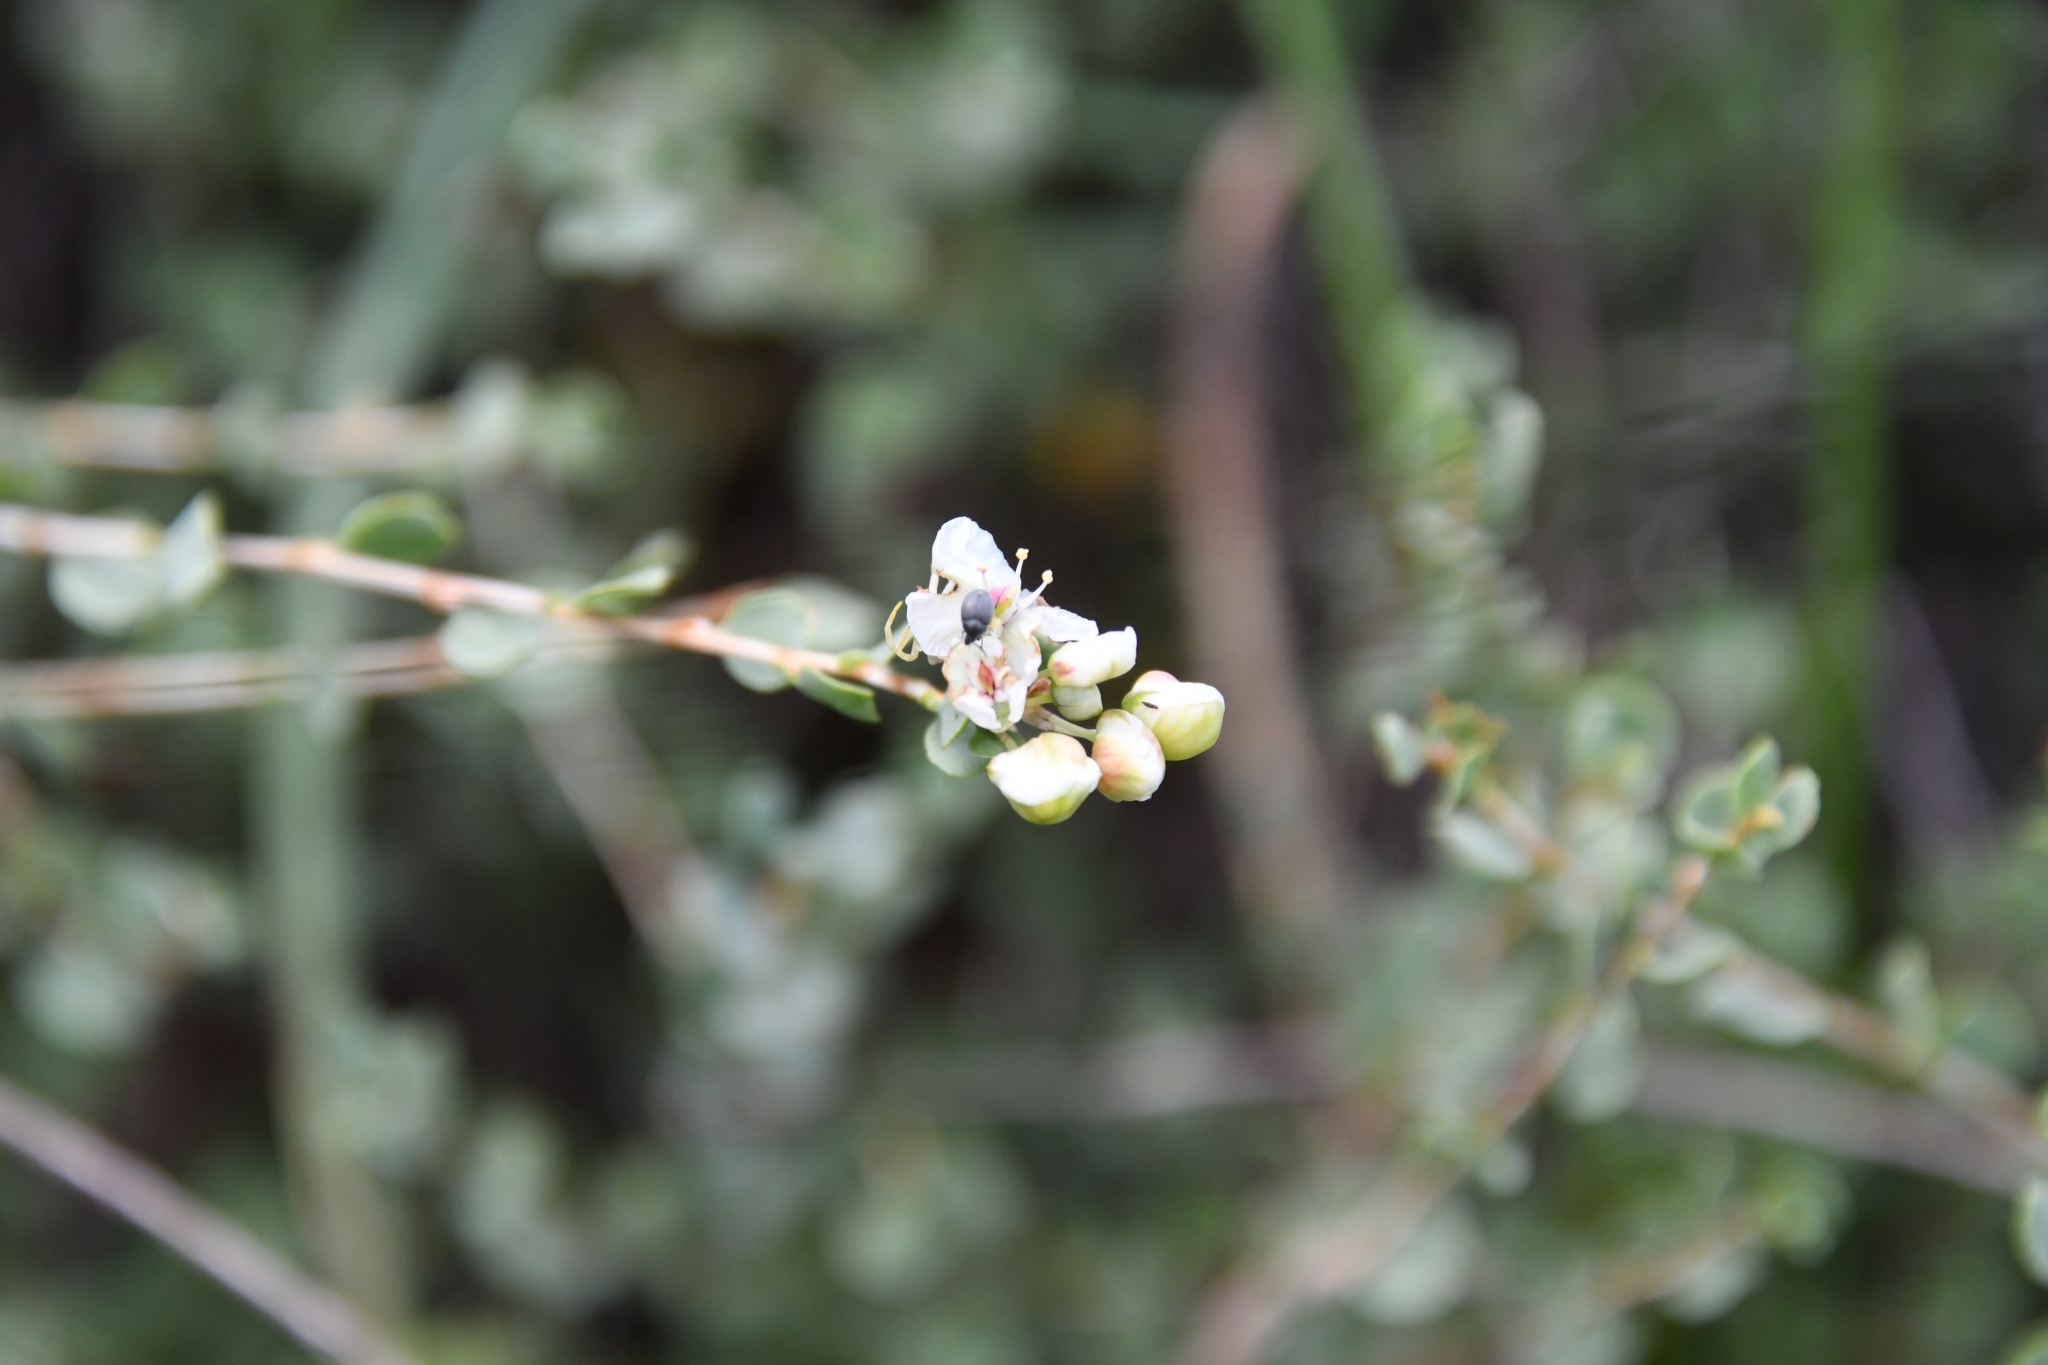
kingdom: Plantae
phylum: Tracheophyta
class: Magnoliopsida
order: Caryophyllales
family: Polygonaceae
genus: Atraphaxis
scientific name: Atraphaxis replicata
